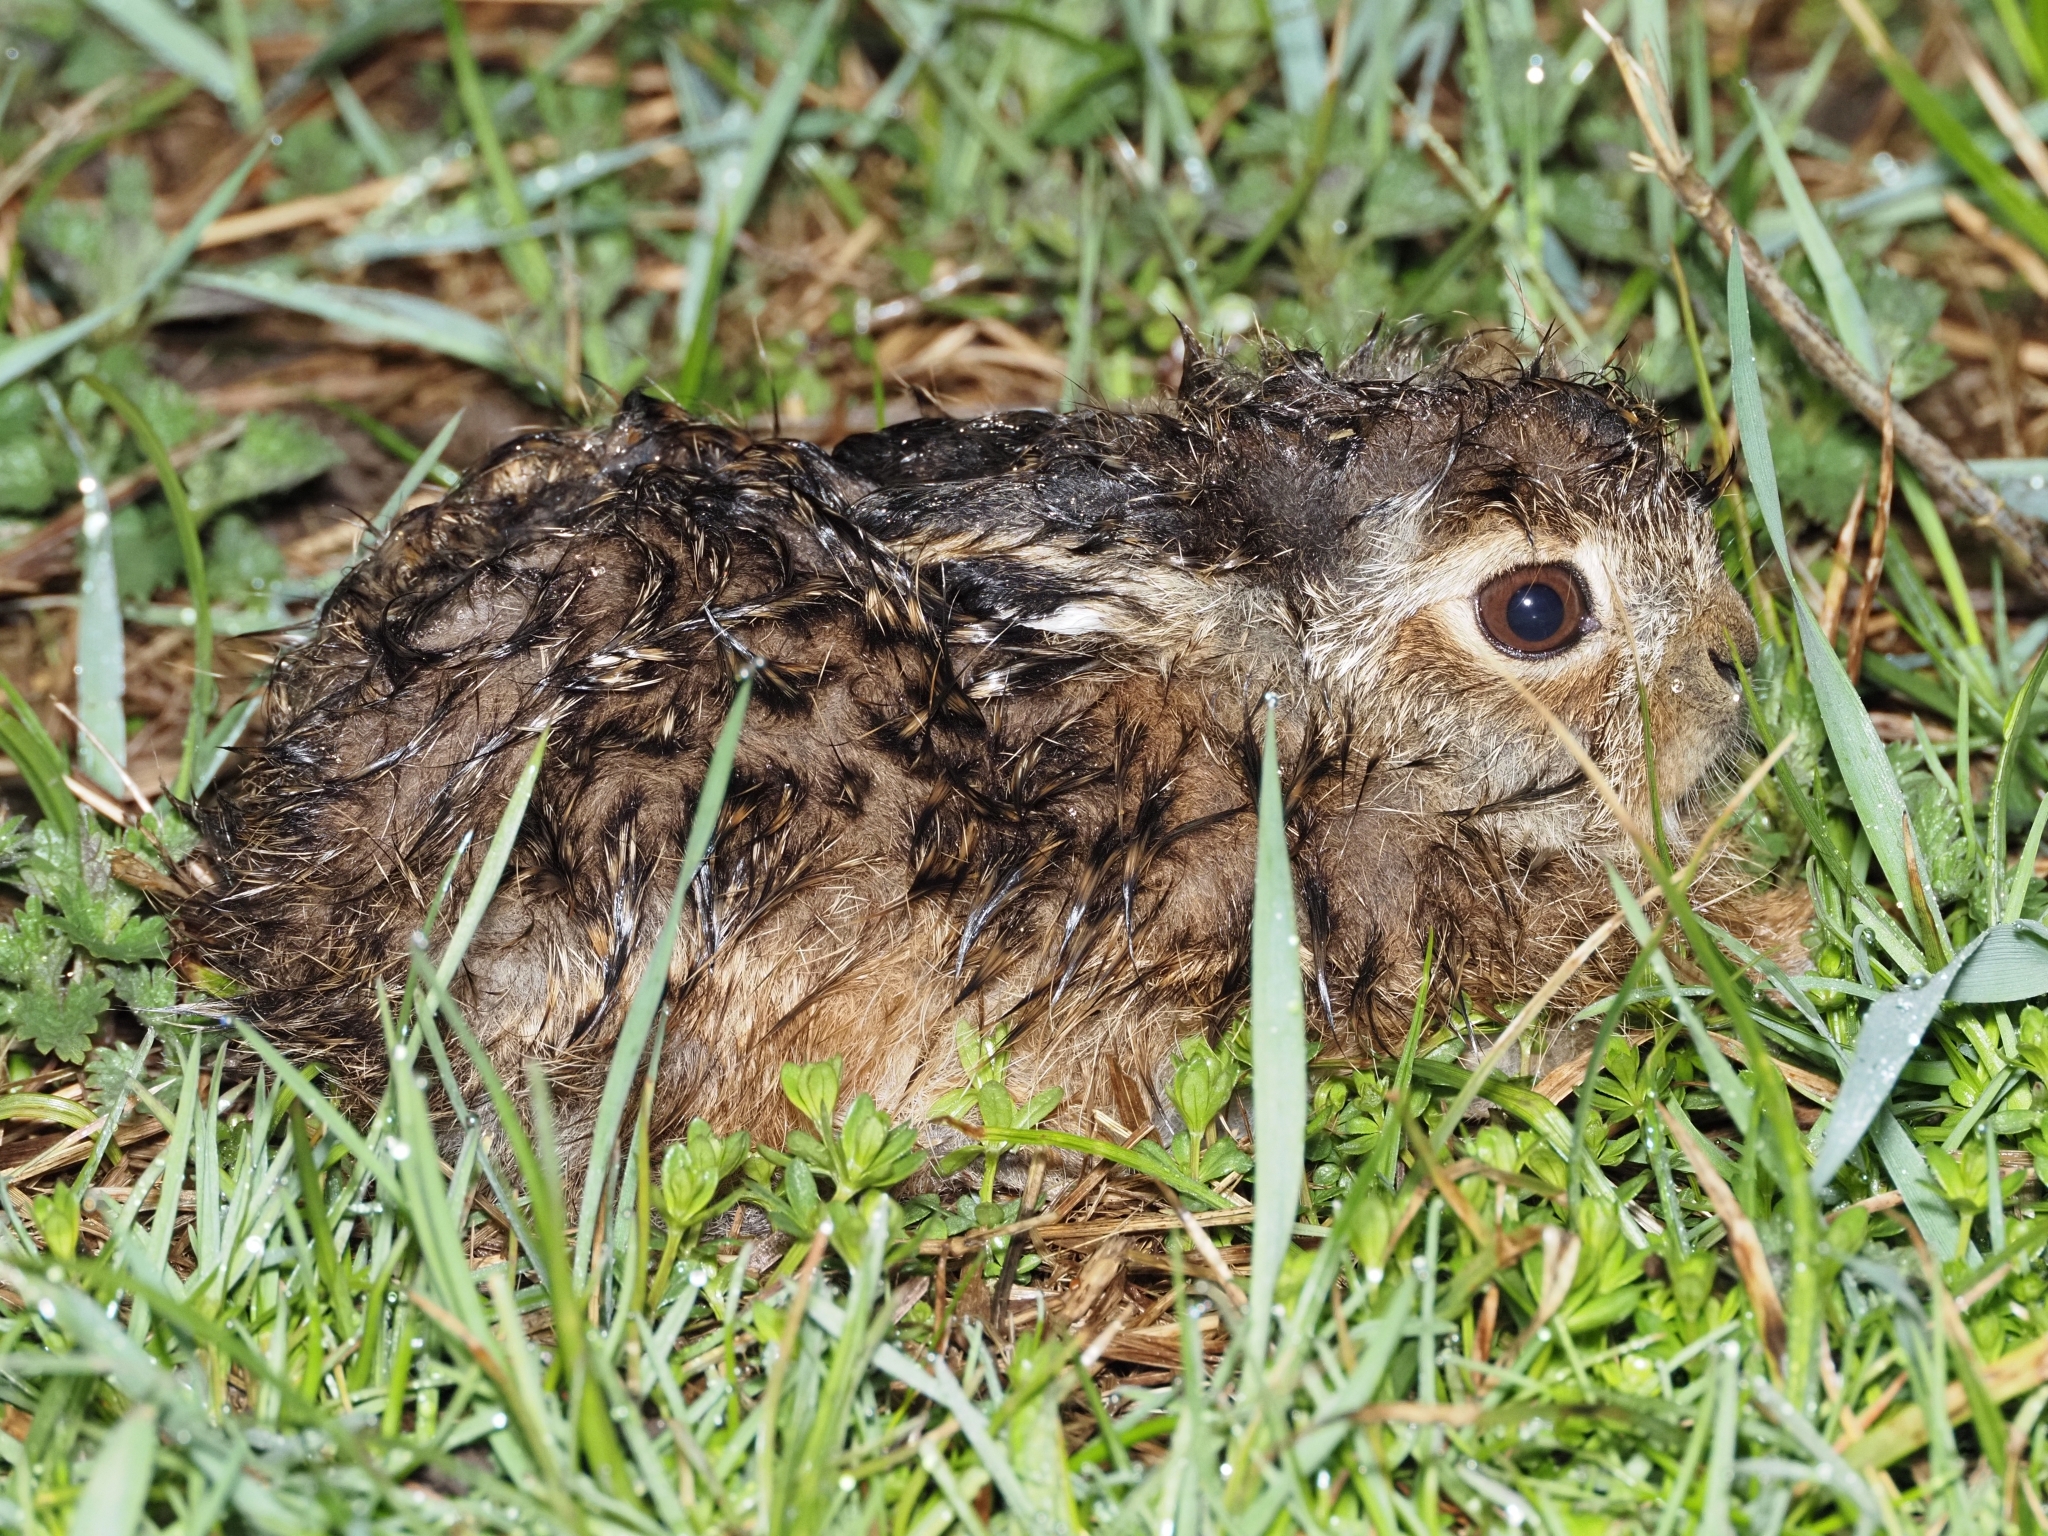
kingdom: Animalia
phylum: Chordata
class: Mammalia
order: Lagomorpha
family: Leporidae
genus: Lepus
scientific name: Lepus europaeus
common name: European hare
